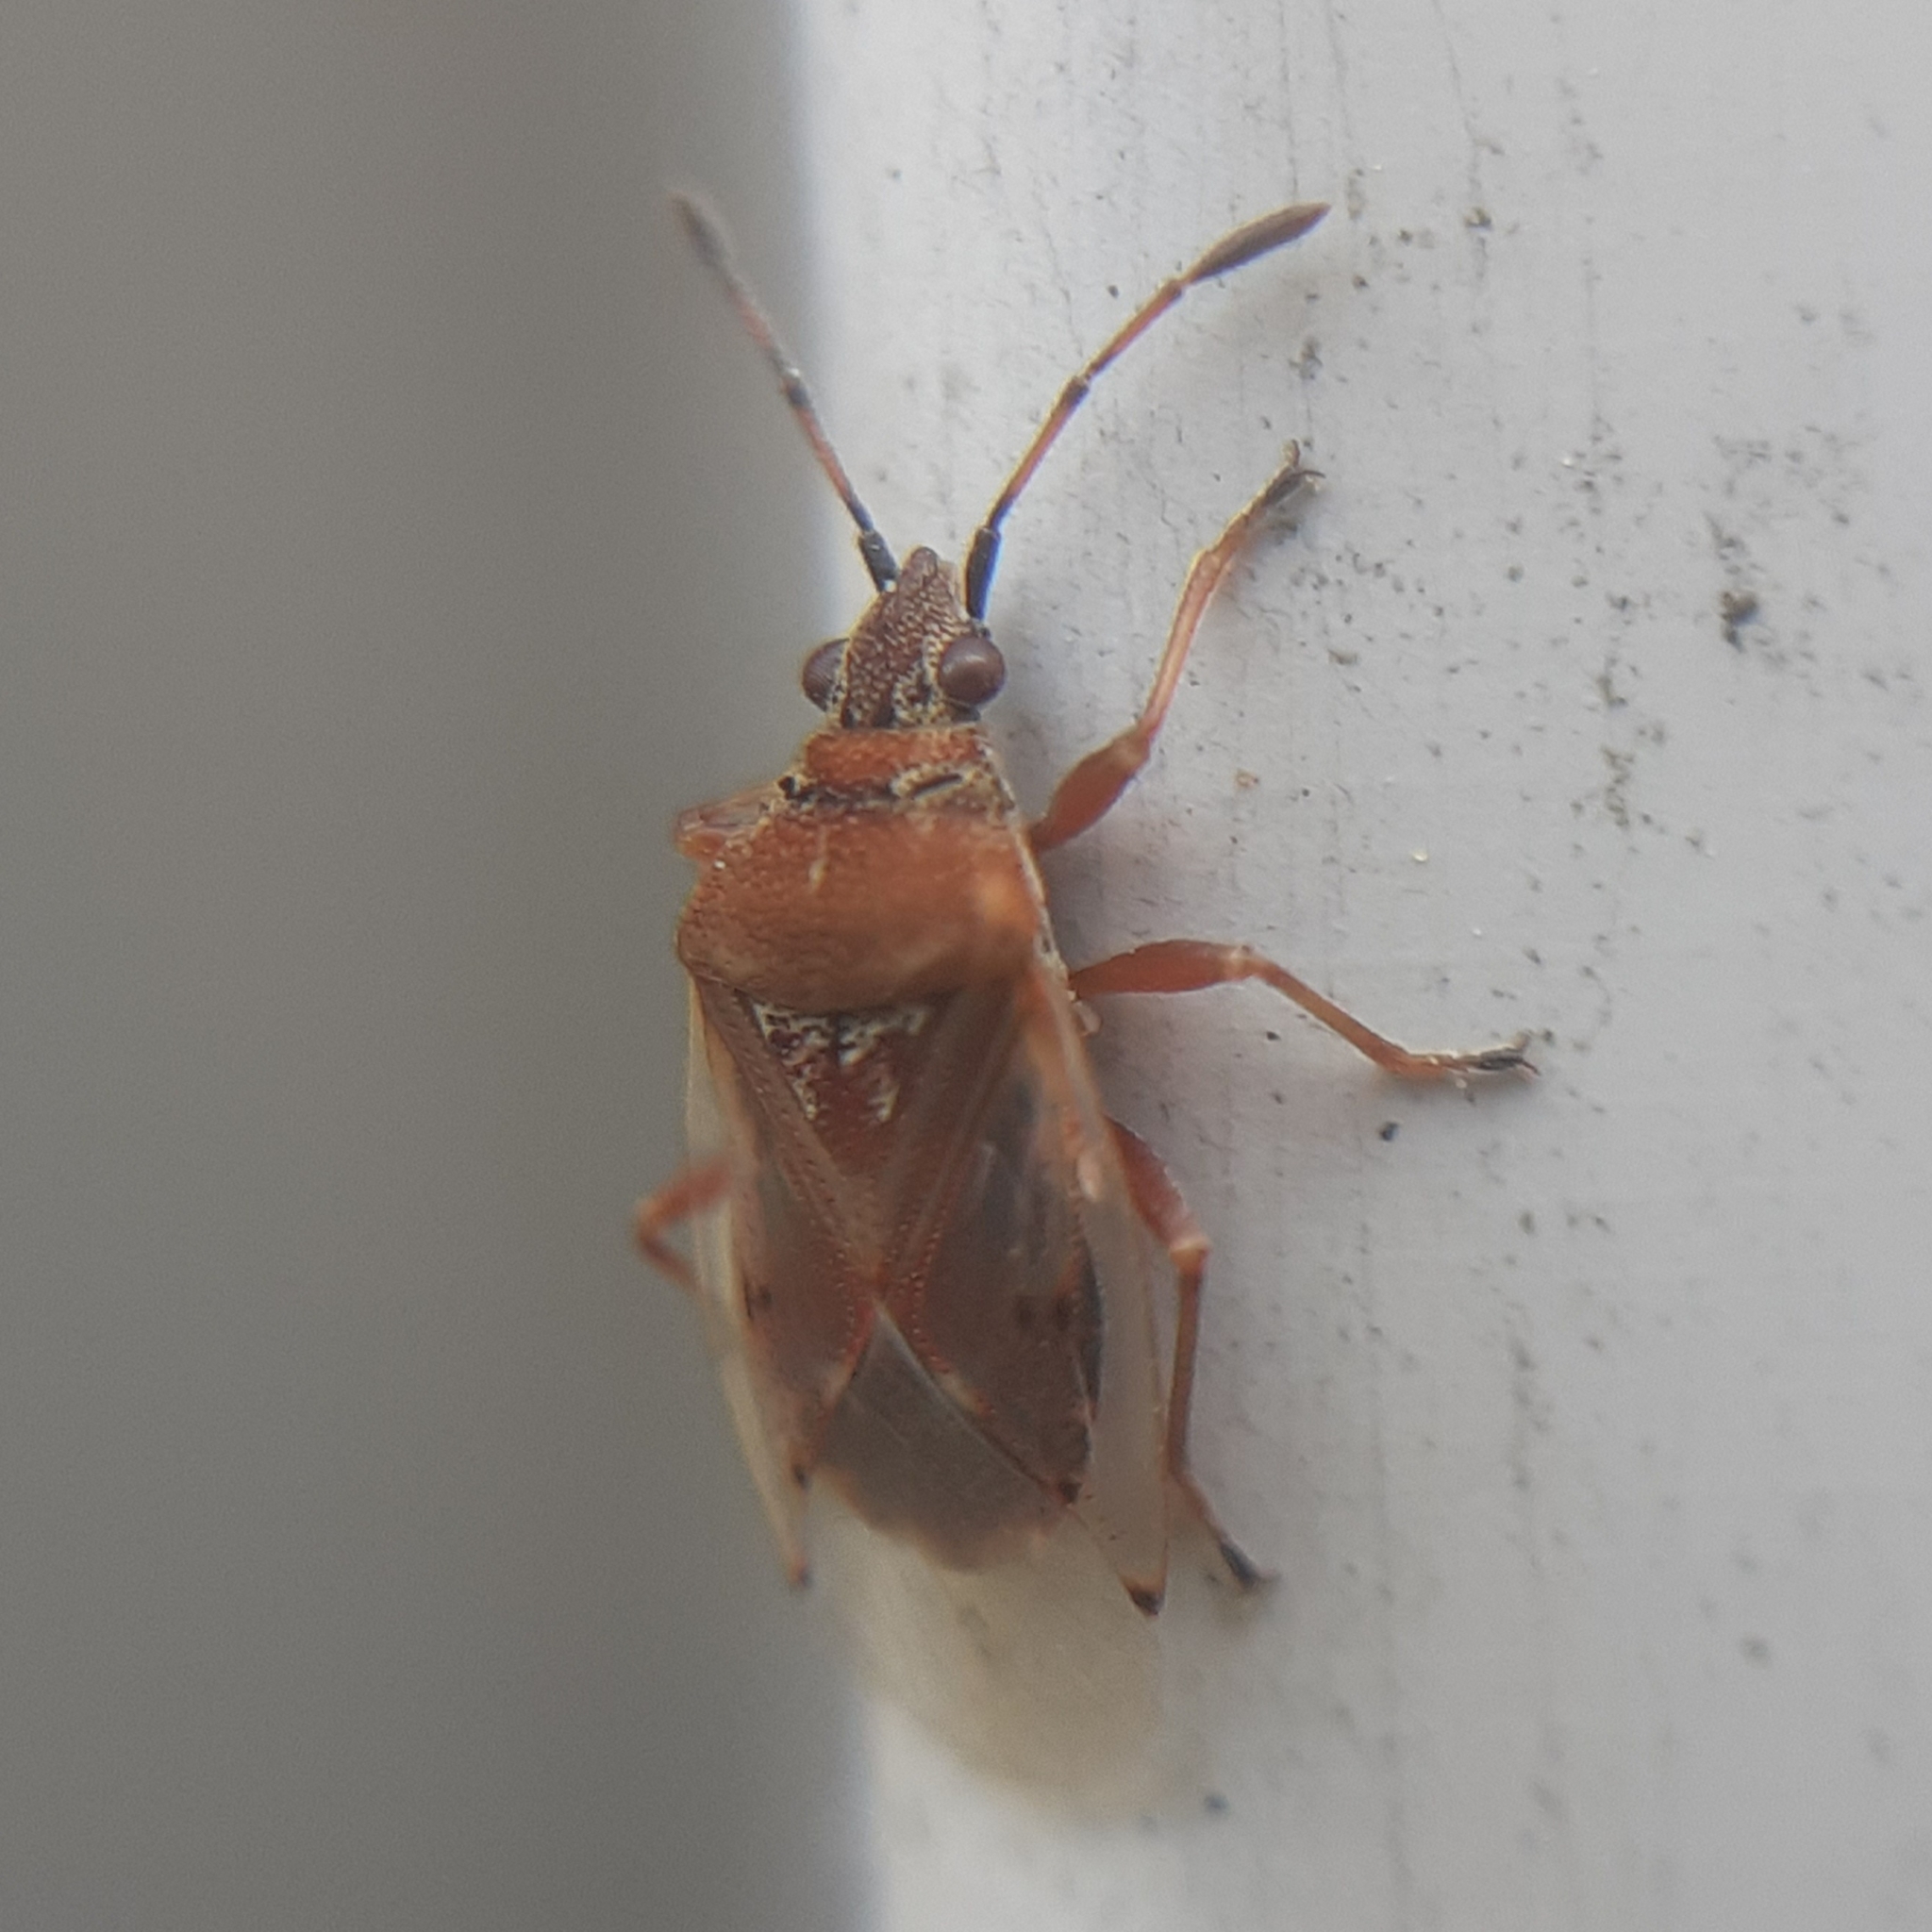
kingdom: Animalia
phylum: Arthropoda
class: Insecta
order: Hemiptera
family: Lygaeidae
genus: Kleidocerys
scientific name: Kleidocerys resedae
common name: Birch catkin bug
